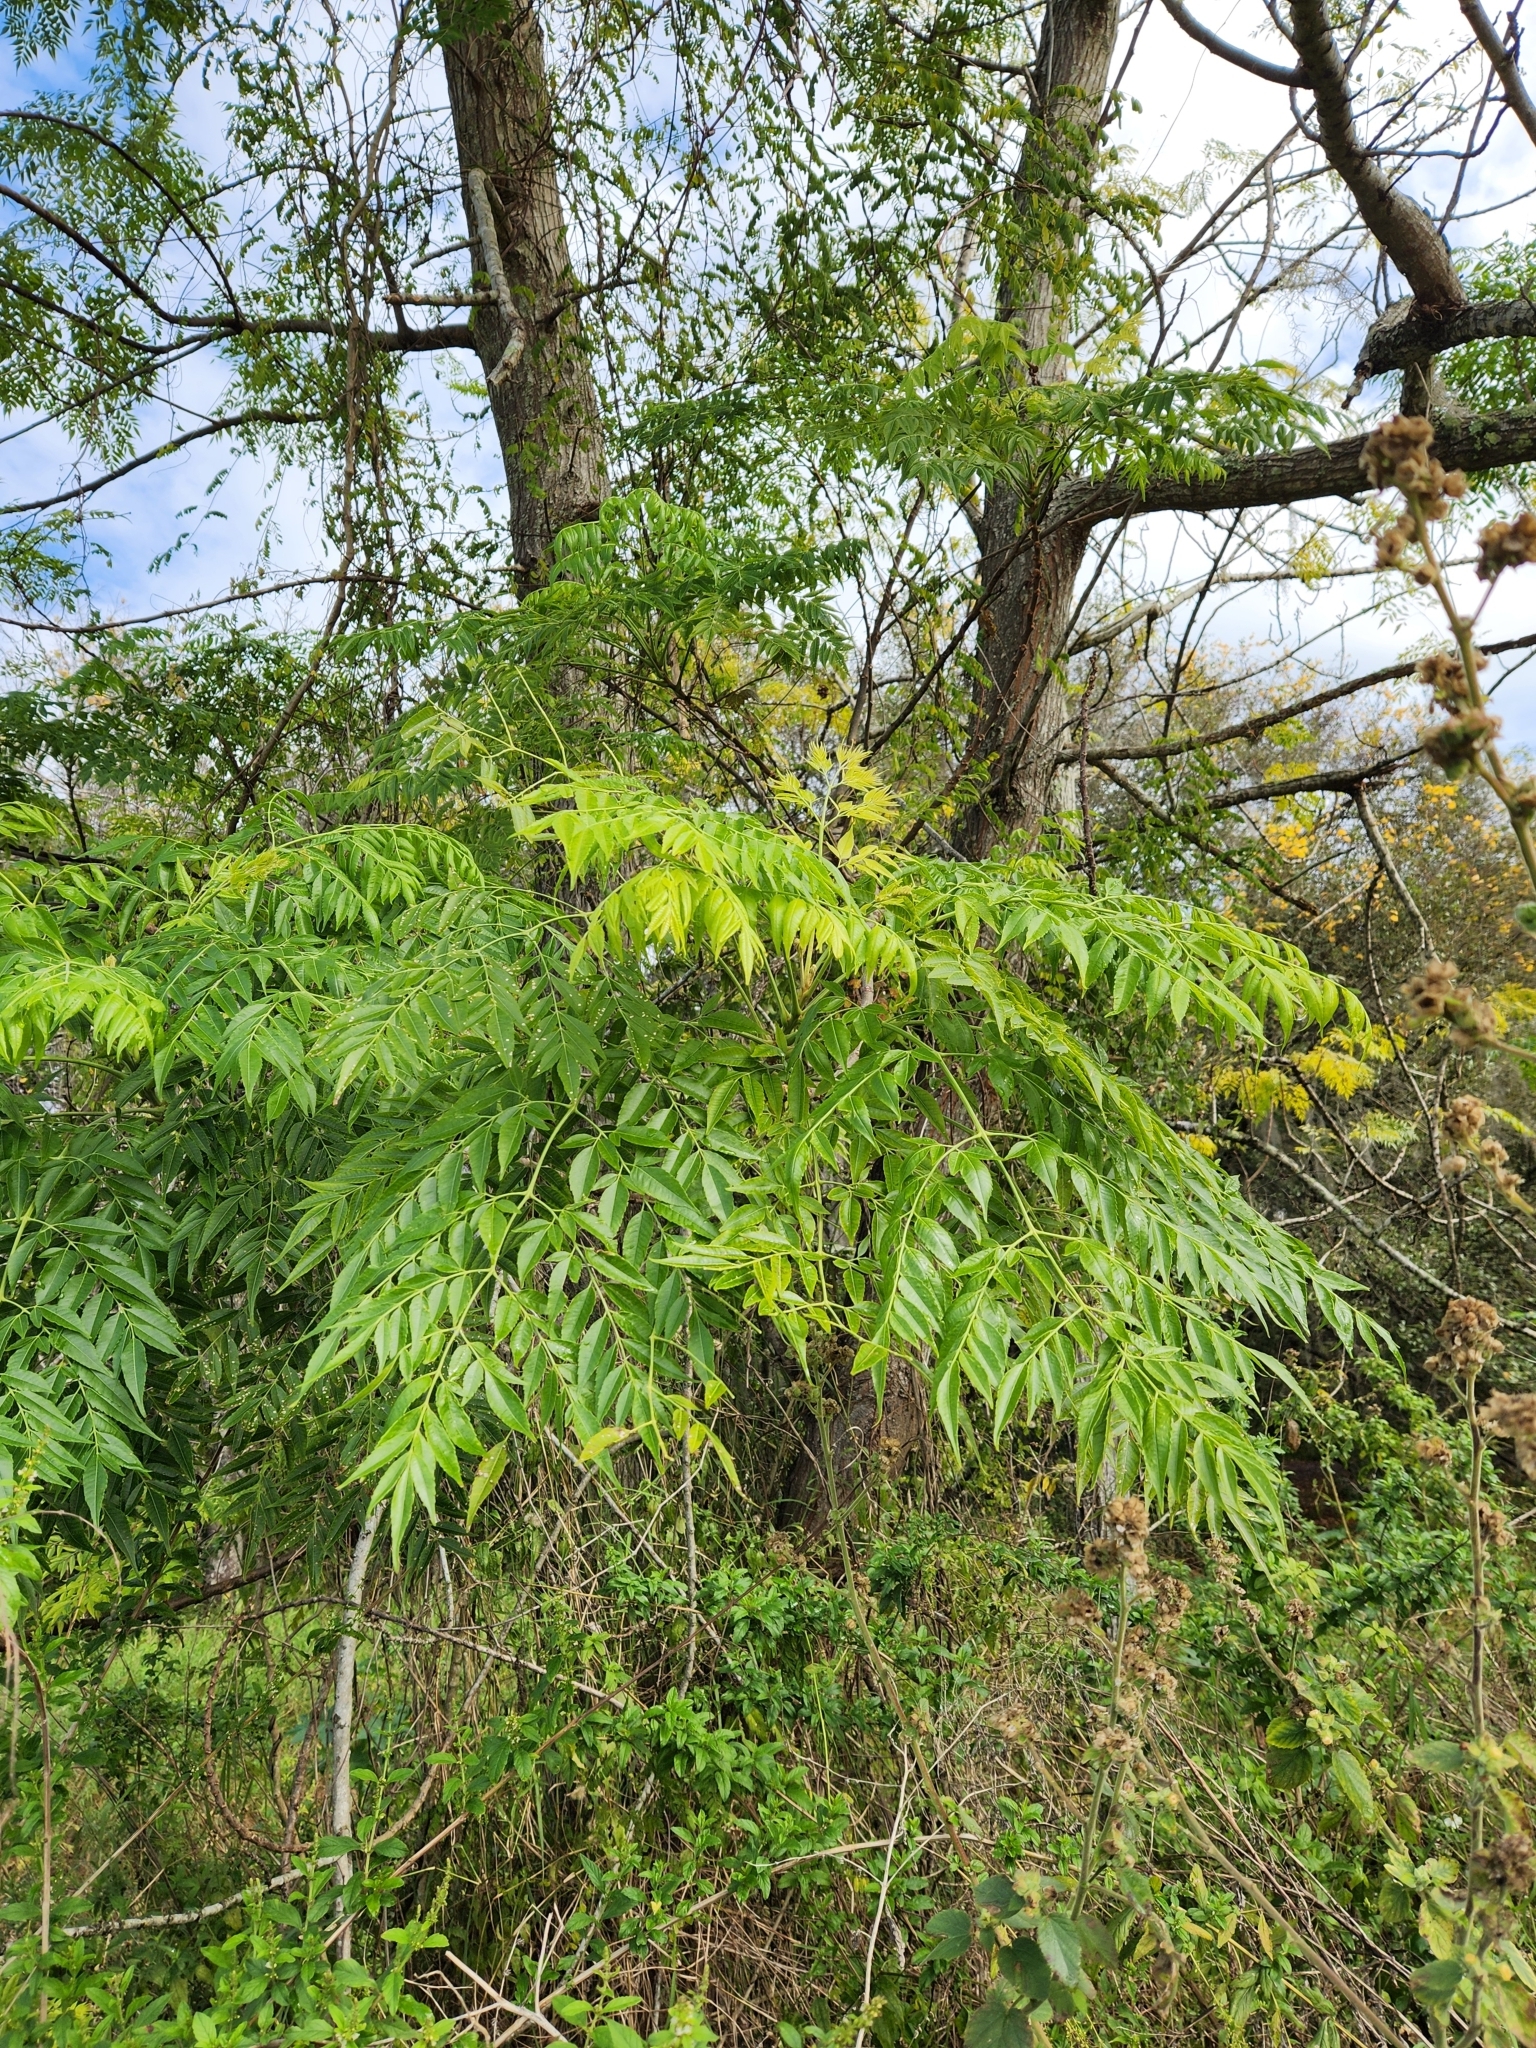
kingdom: Plantae
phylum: Tracheophyta
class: Magnoliopsida
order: Sapindales
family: Meliaceae
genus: Melia
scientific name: Melia azedarach
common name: Chinaberrytree
